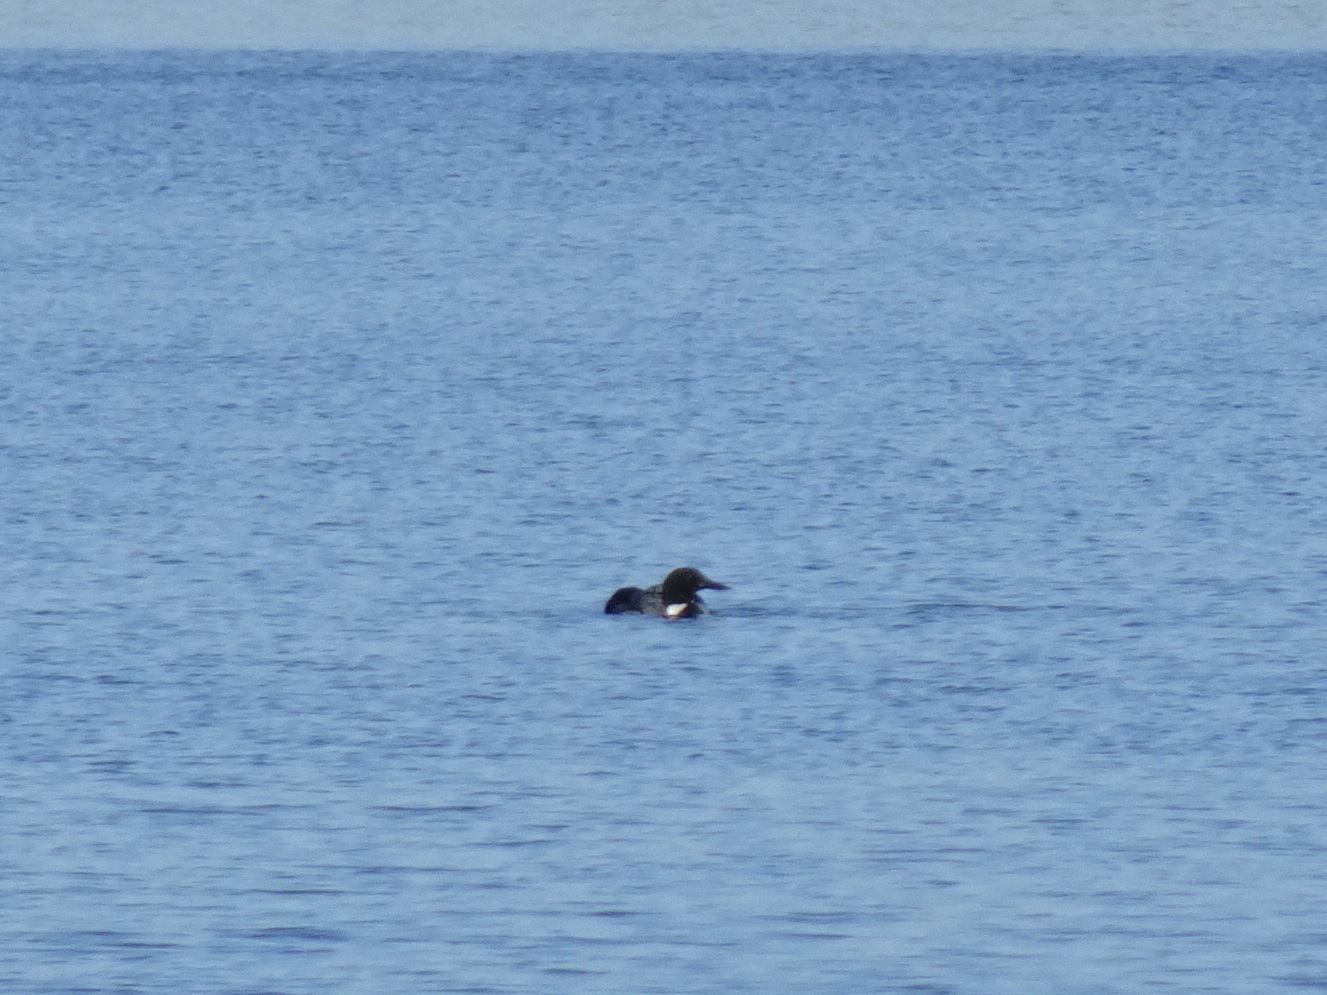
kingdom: Animalia
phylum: Chordata
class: Aves
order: Gaviiformes
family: Gaviidae
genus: Gavia
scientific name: Gavia immer
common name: Common loon
